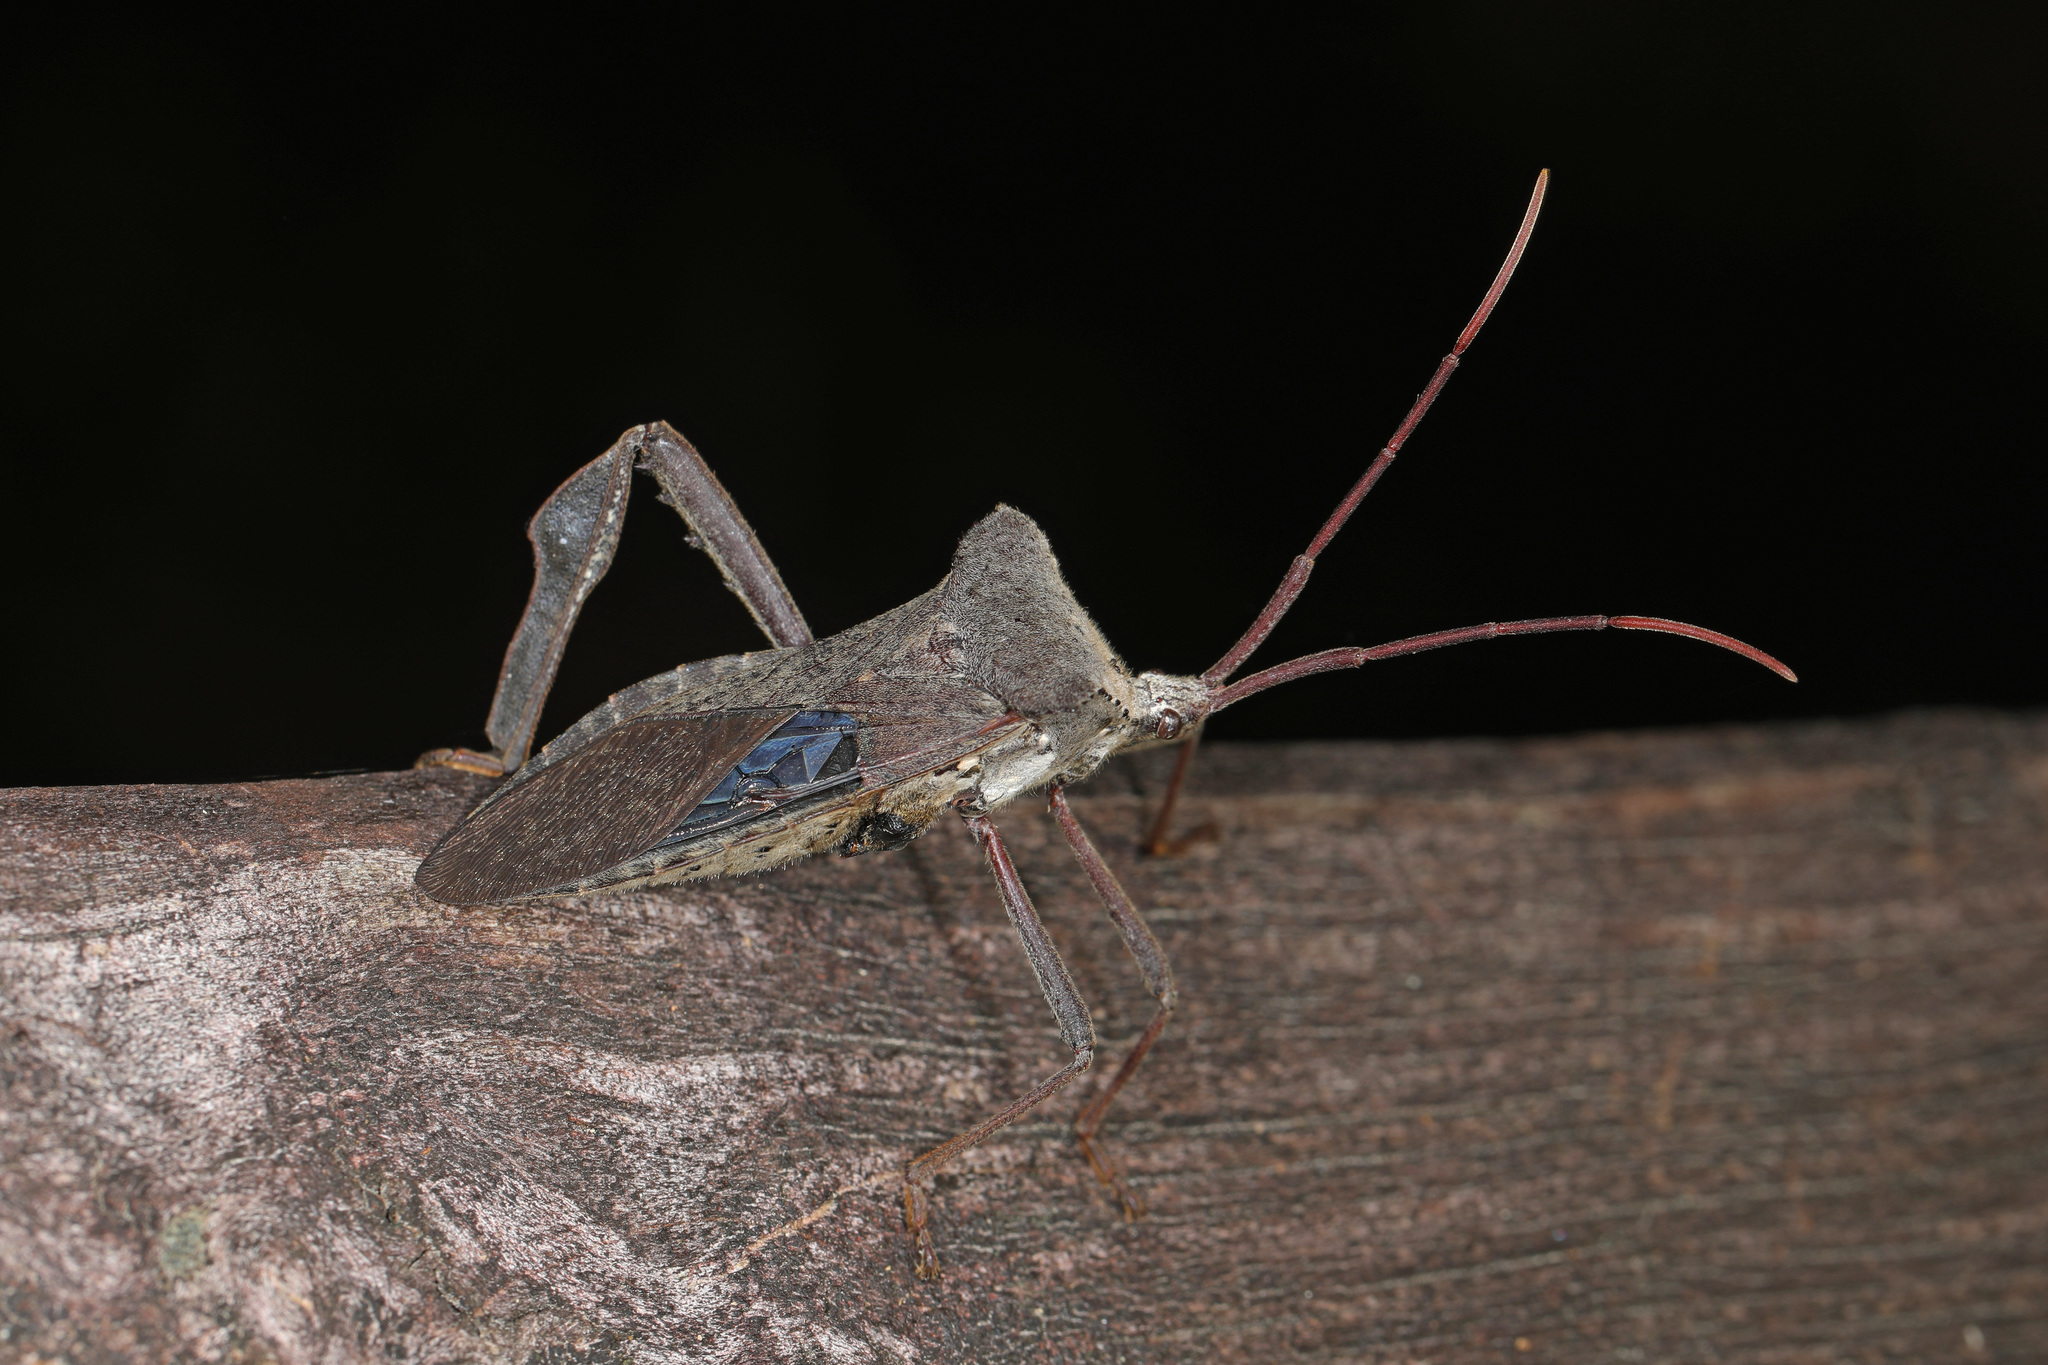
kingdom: Animalia
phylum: Arthropoda
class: Insecta
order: Hemiptera
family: Coreidae
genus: Acanthocephala
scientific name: Acanthocephala declivis
